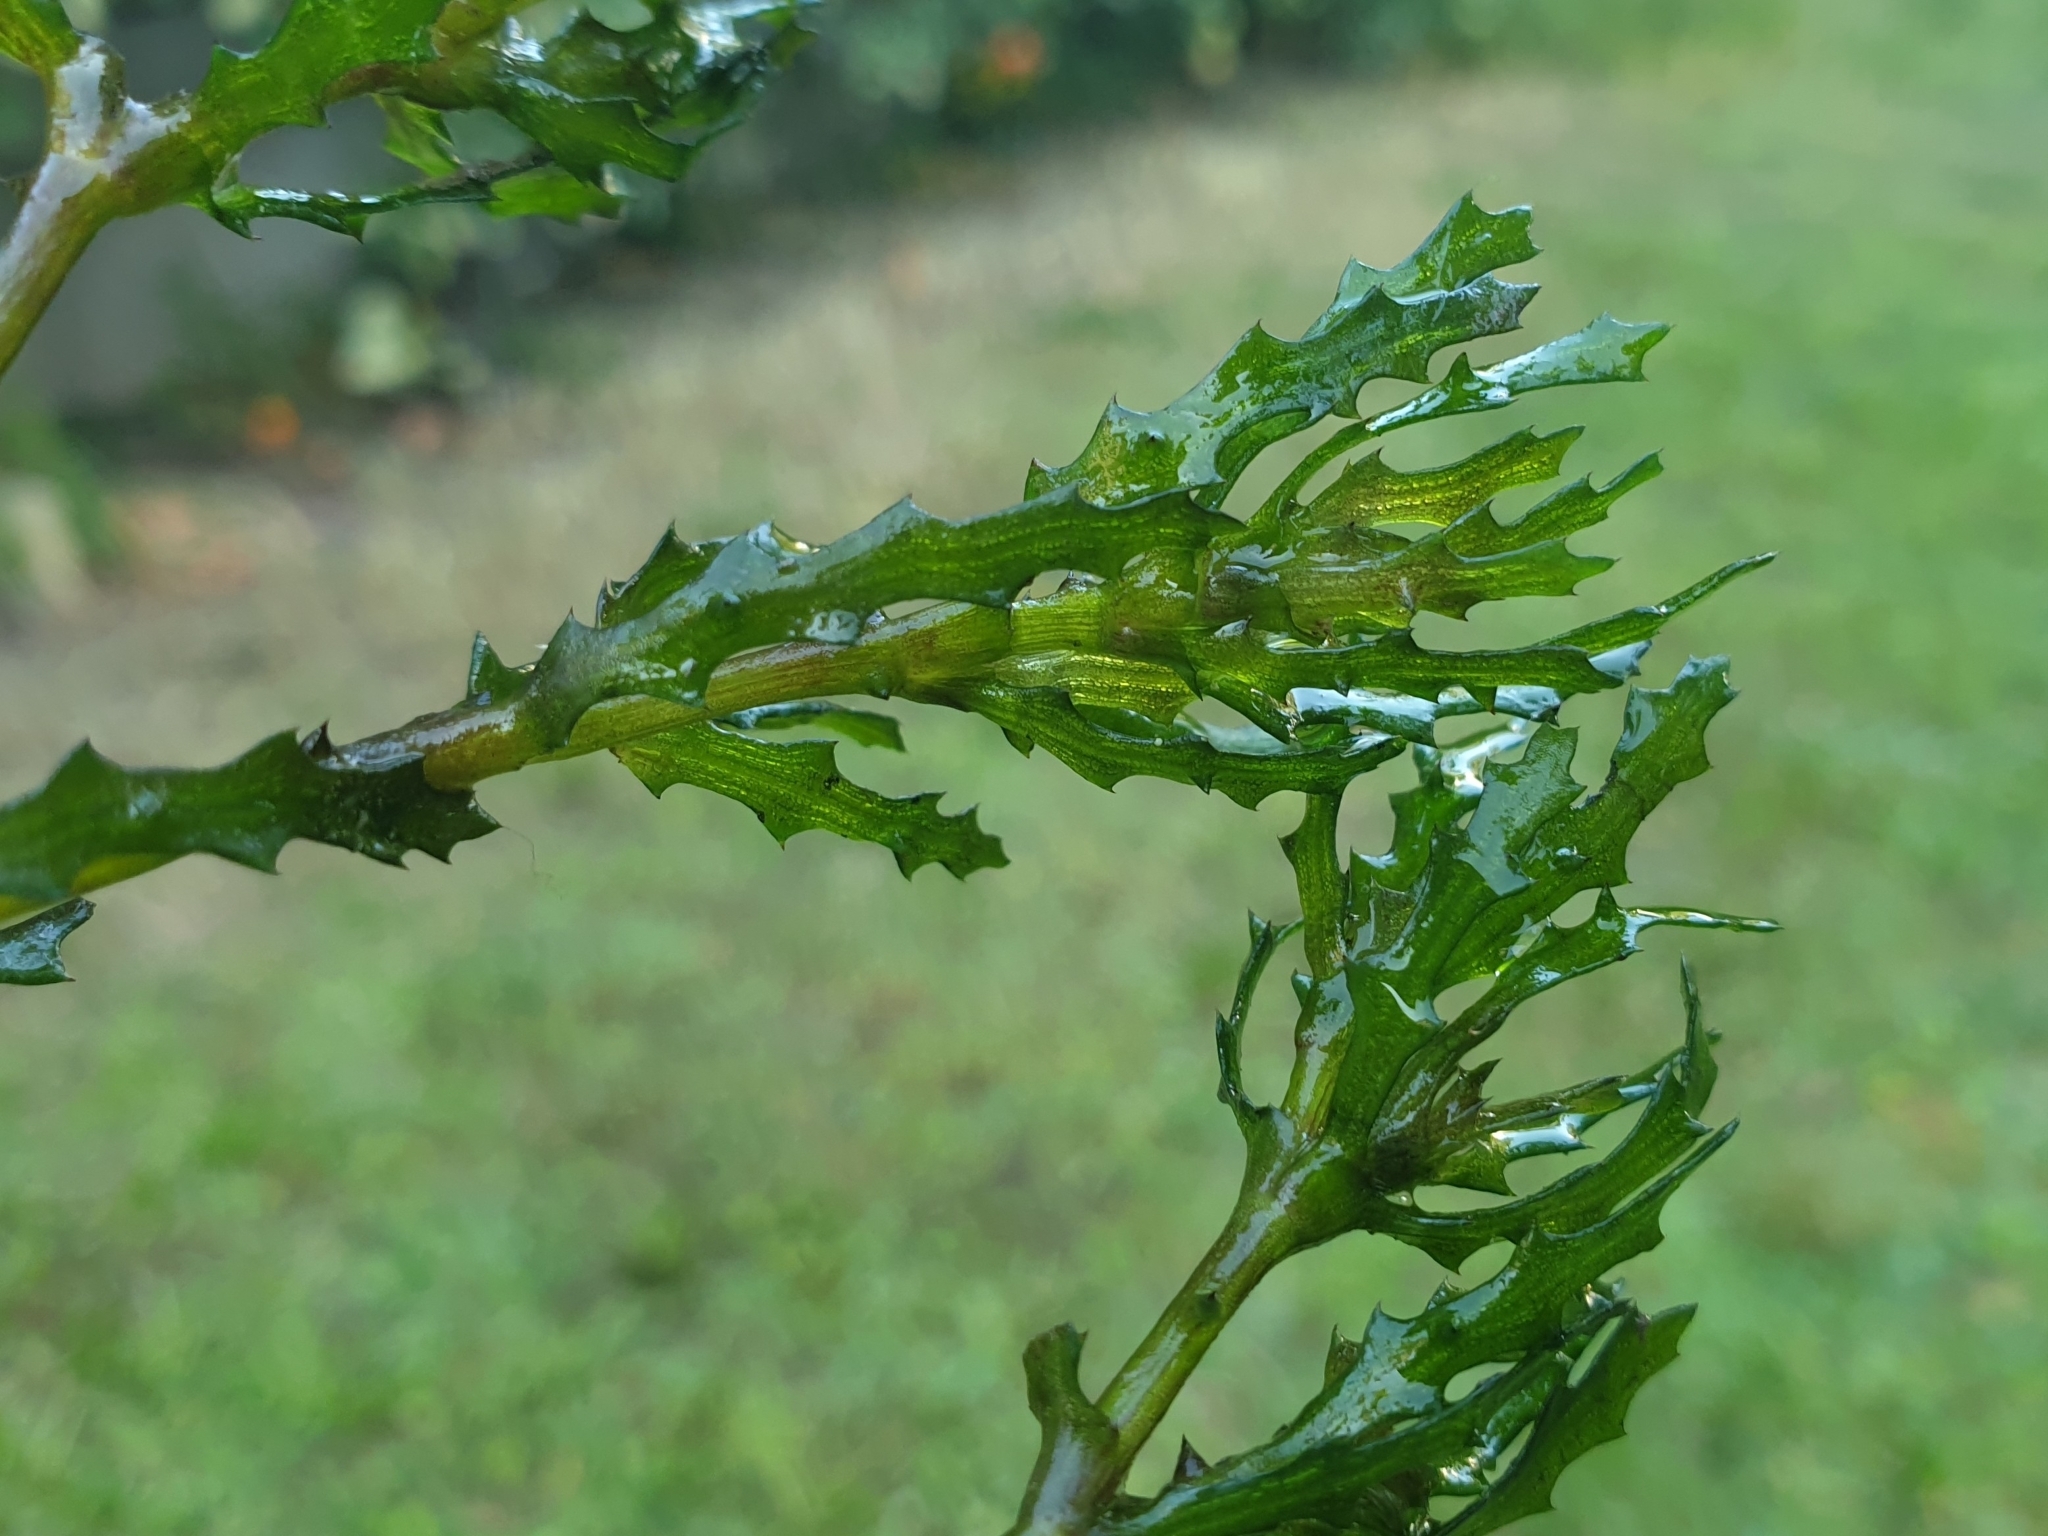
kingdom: Plantae
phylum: Tracheophyta
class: Liliopsida
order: Alismatales
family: Hydrocharitaceae
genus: Najas
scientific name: Najas marina
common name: Holly-leaved naiad
